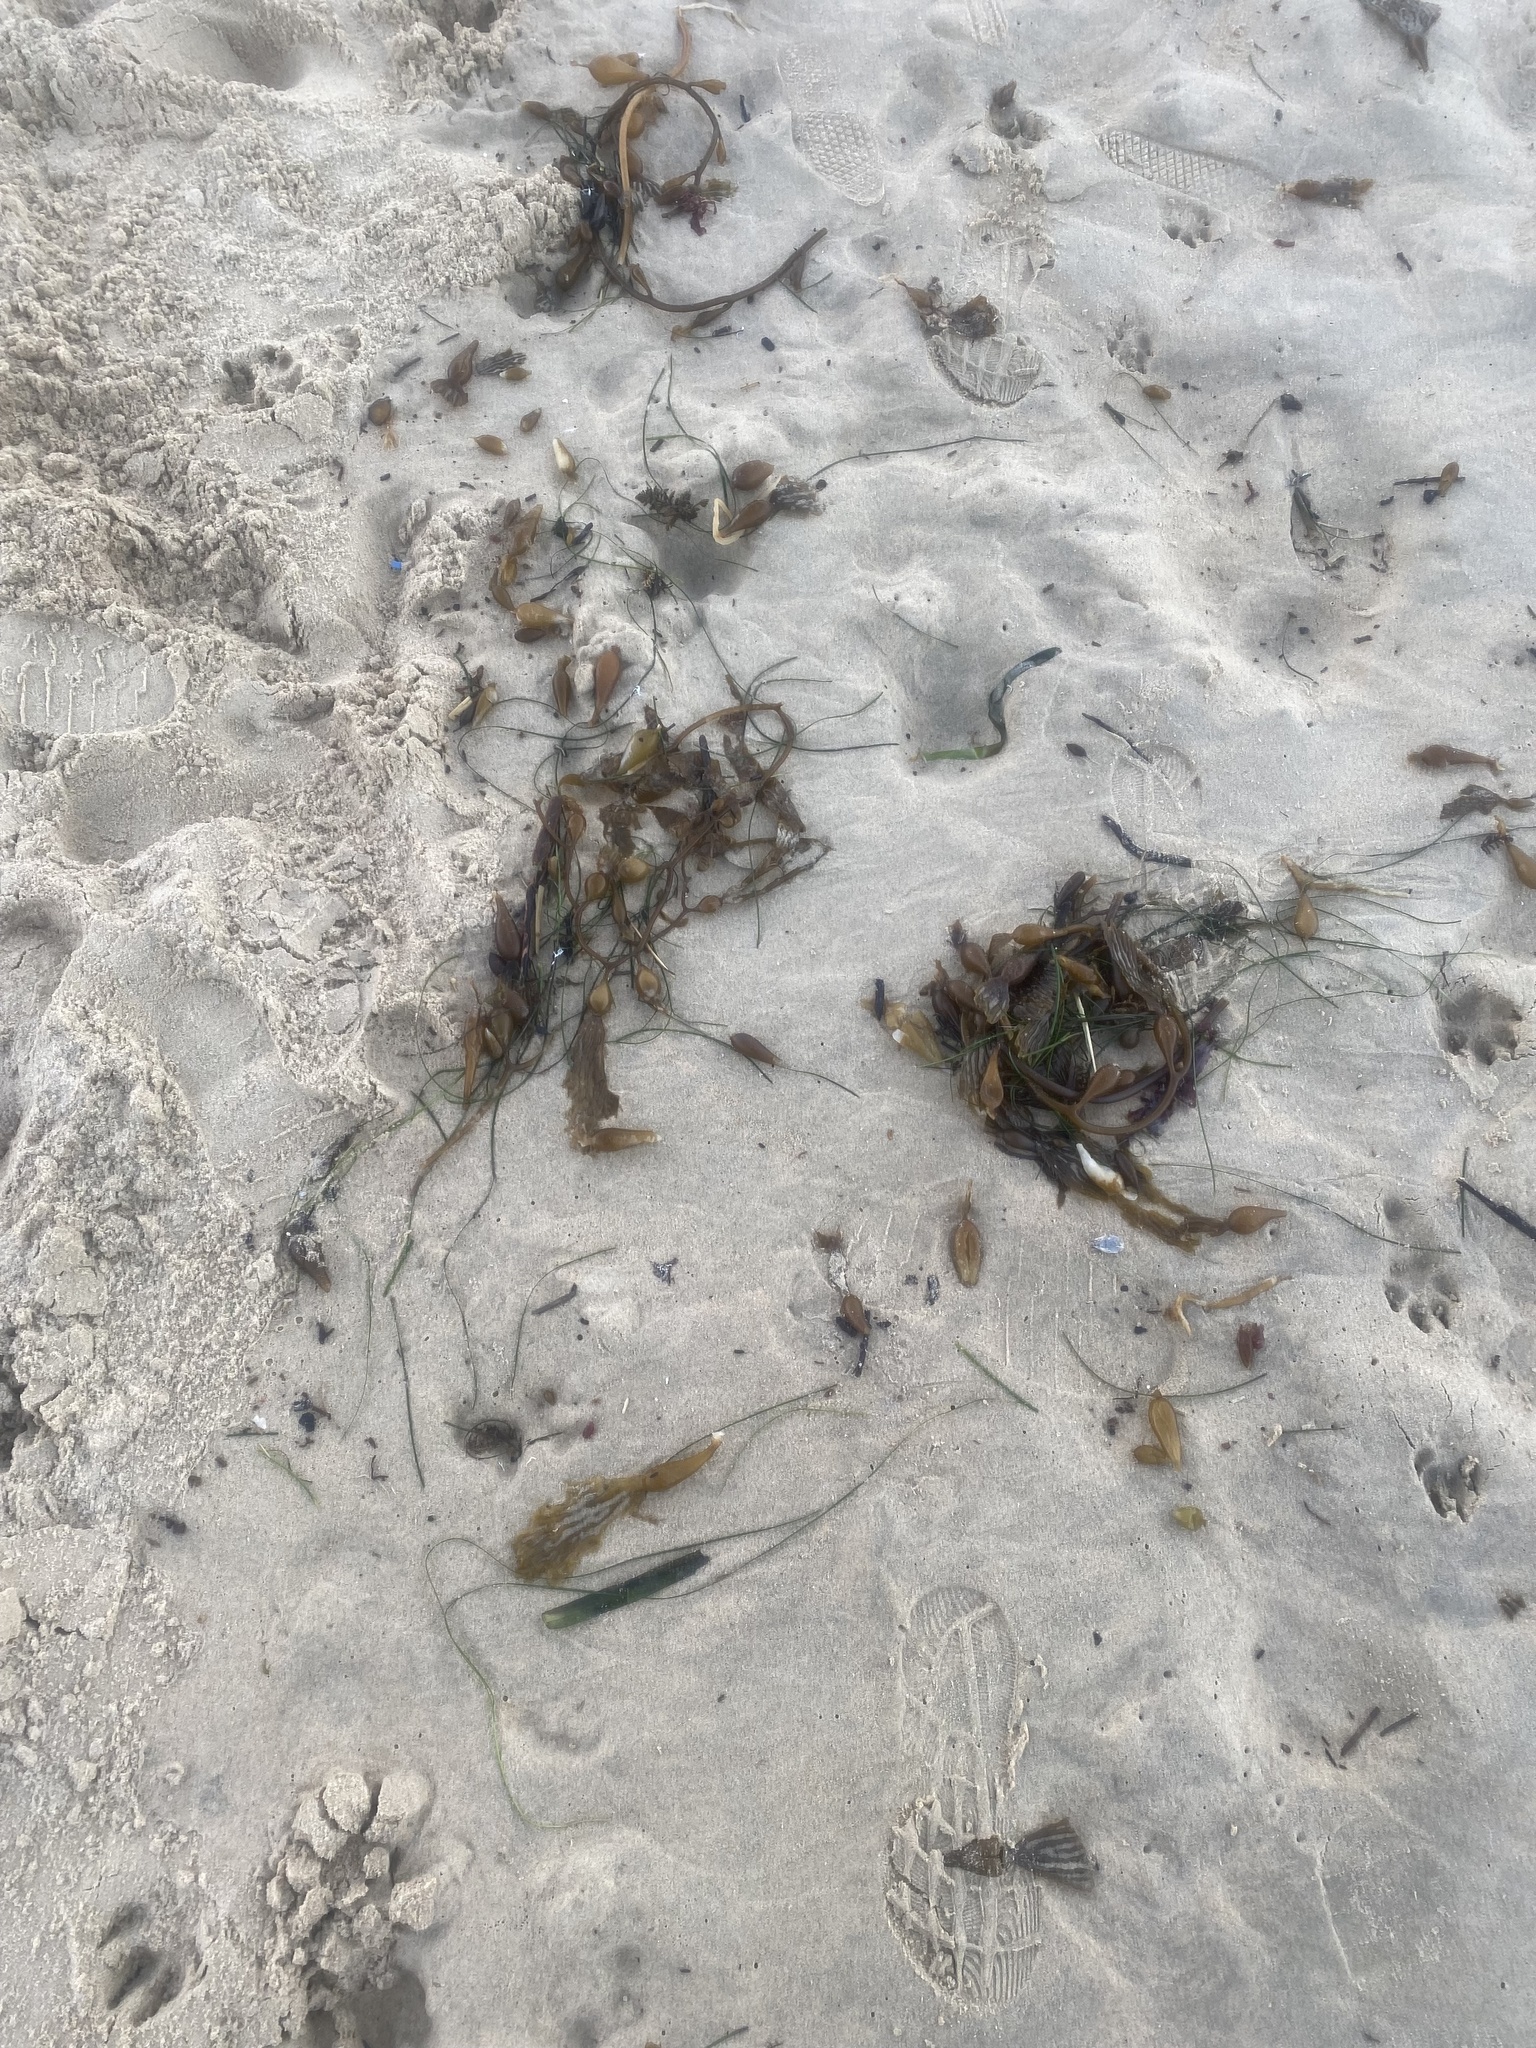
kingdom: Chromista
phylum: Ochrophyta
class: Phaeophyceae
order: Laminariales
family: Laminariaceae
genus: Macrocystis
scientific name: Macrocystis pyrifera
